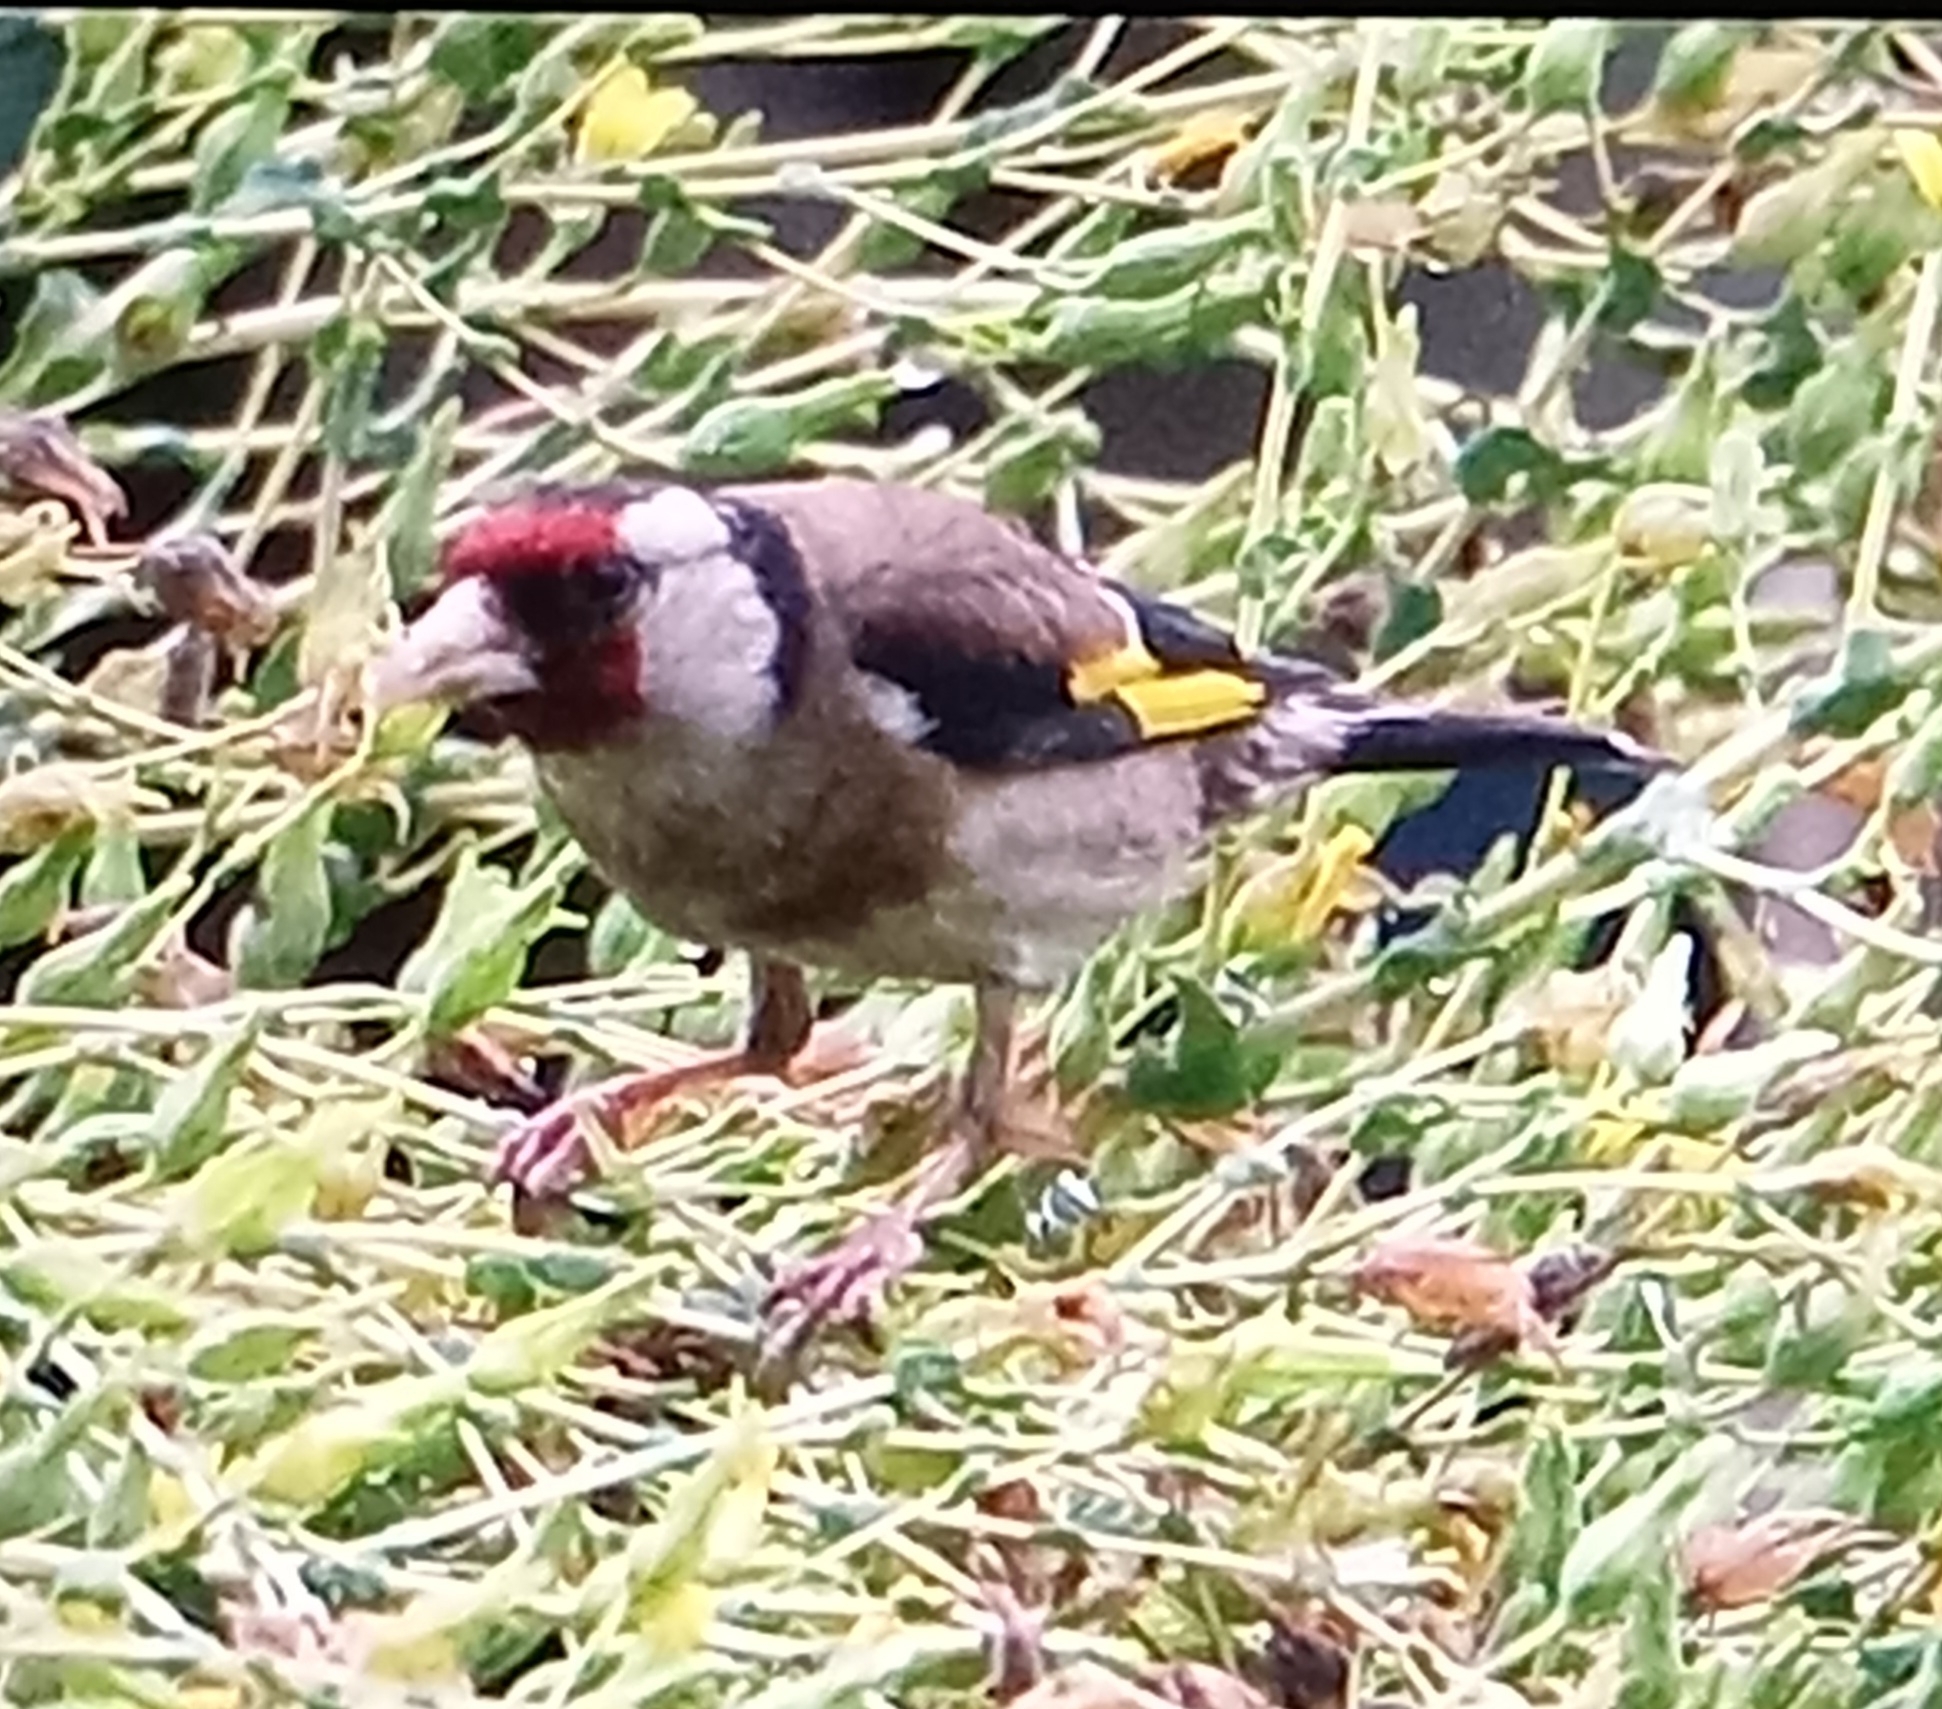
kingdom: Animalia
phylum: Chordata
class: Aves
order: Passeriformes
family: Fringillidae
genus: Carduelis
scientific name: Carduelis carduelis
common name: European goldfinch
